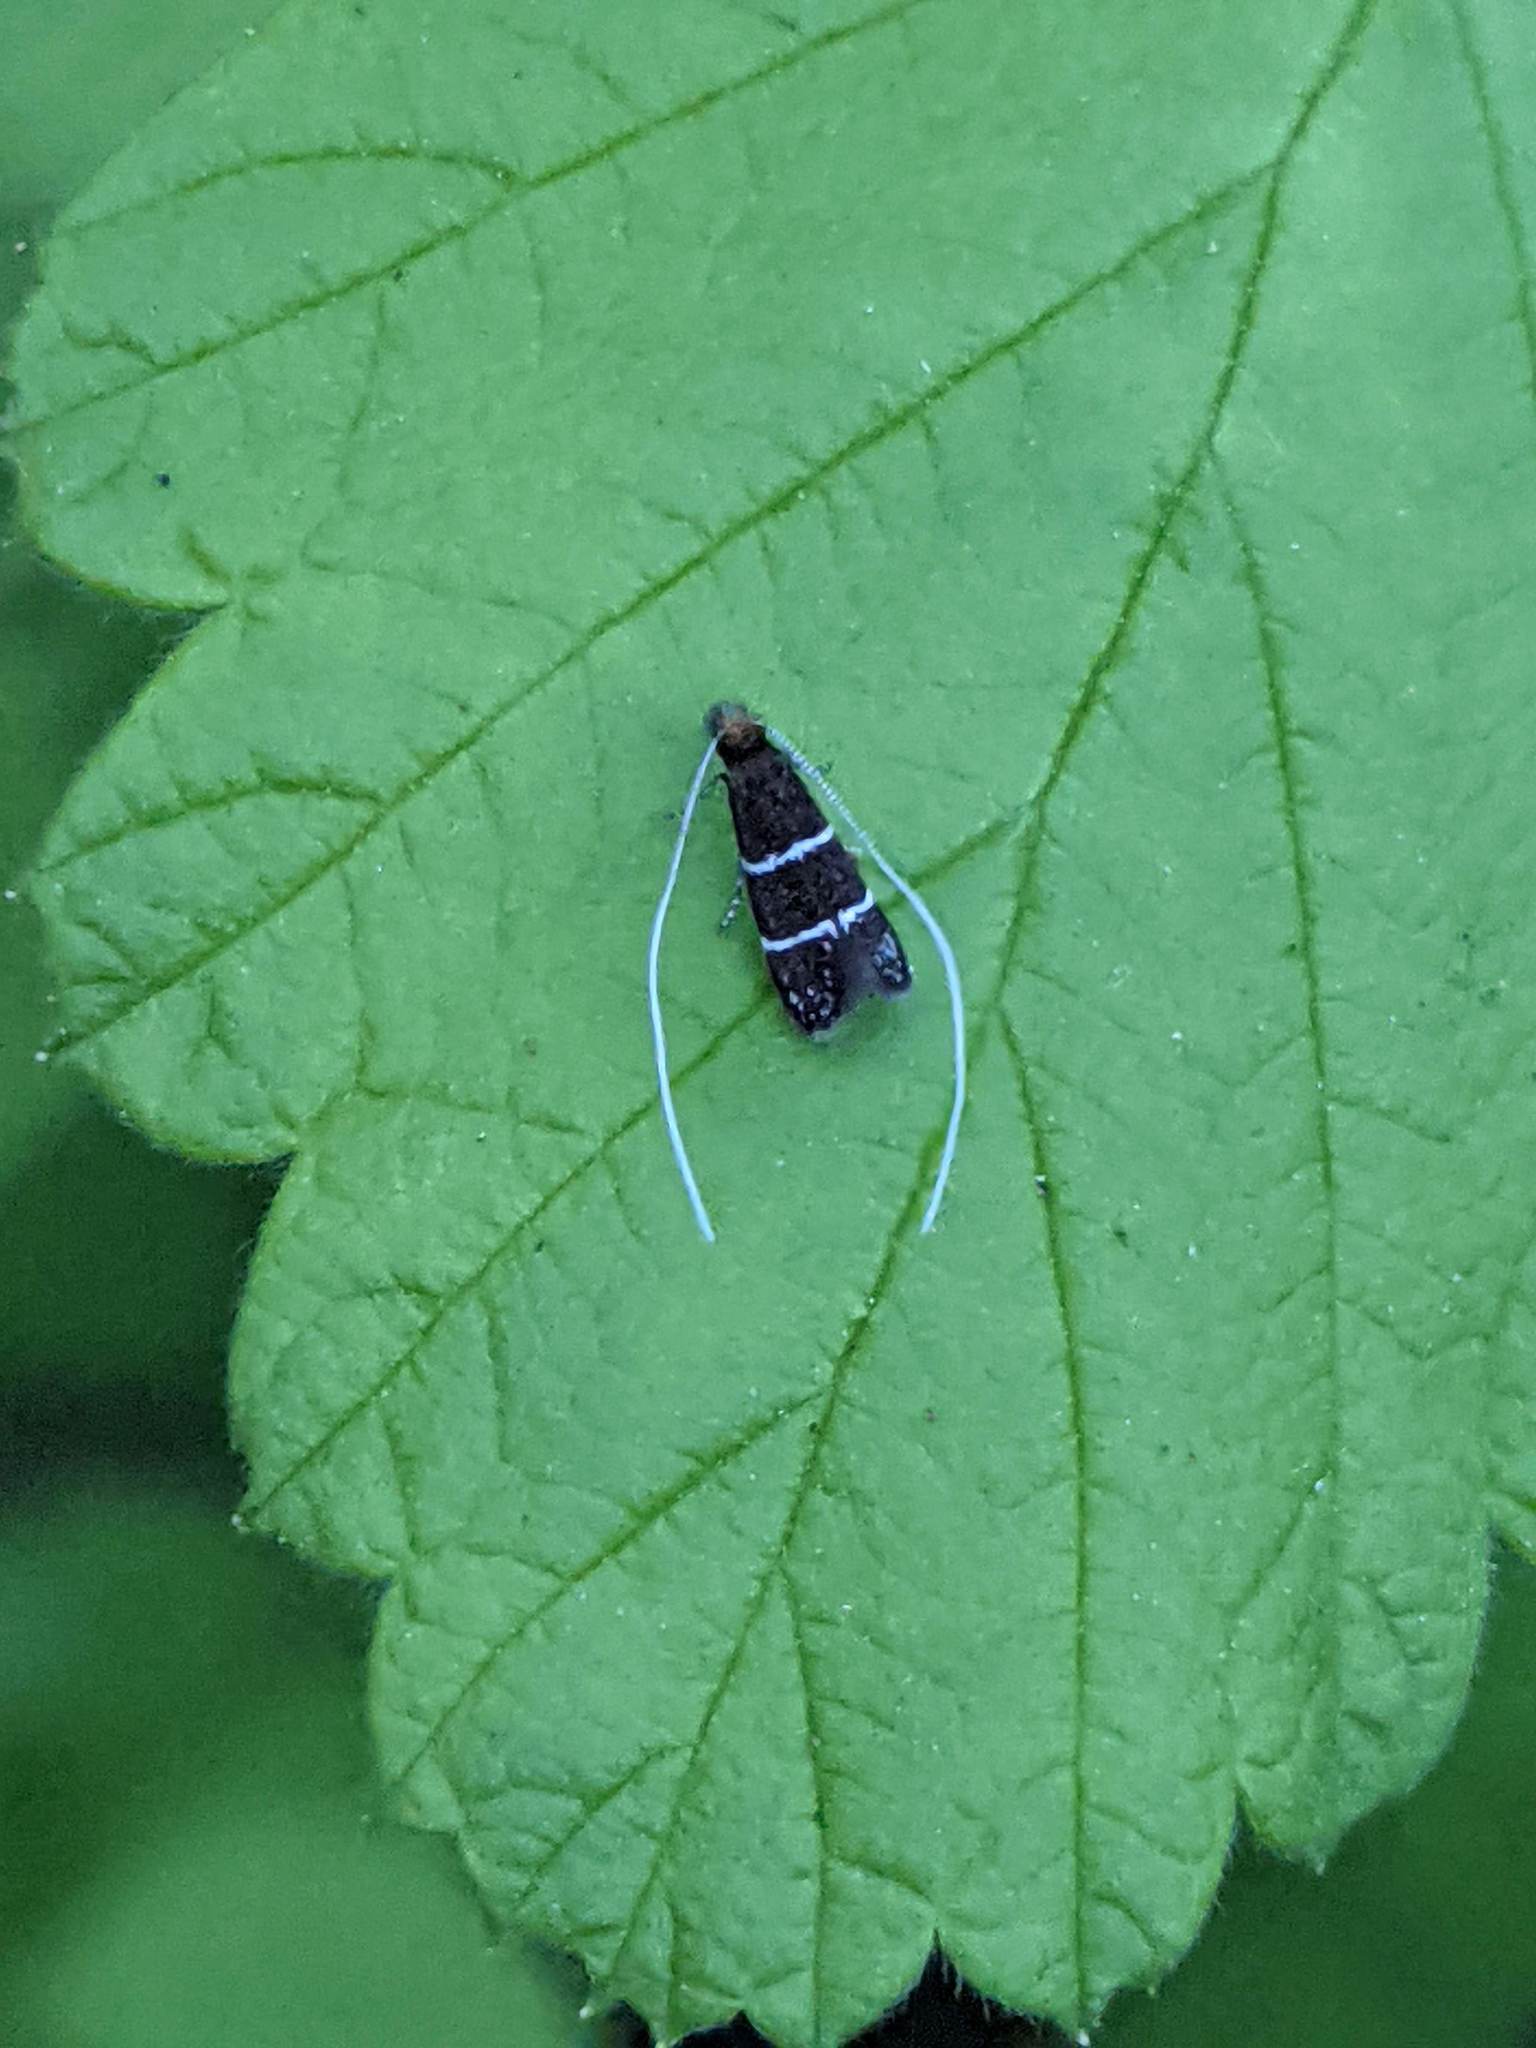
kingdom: Animalia
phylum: Arthropoda
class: Insecta
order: Lepidoptera
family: Adelidae
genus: Adela
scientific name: Adela septentrionella
